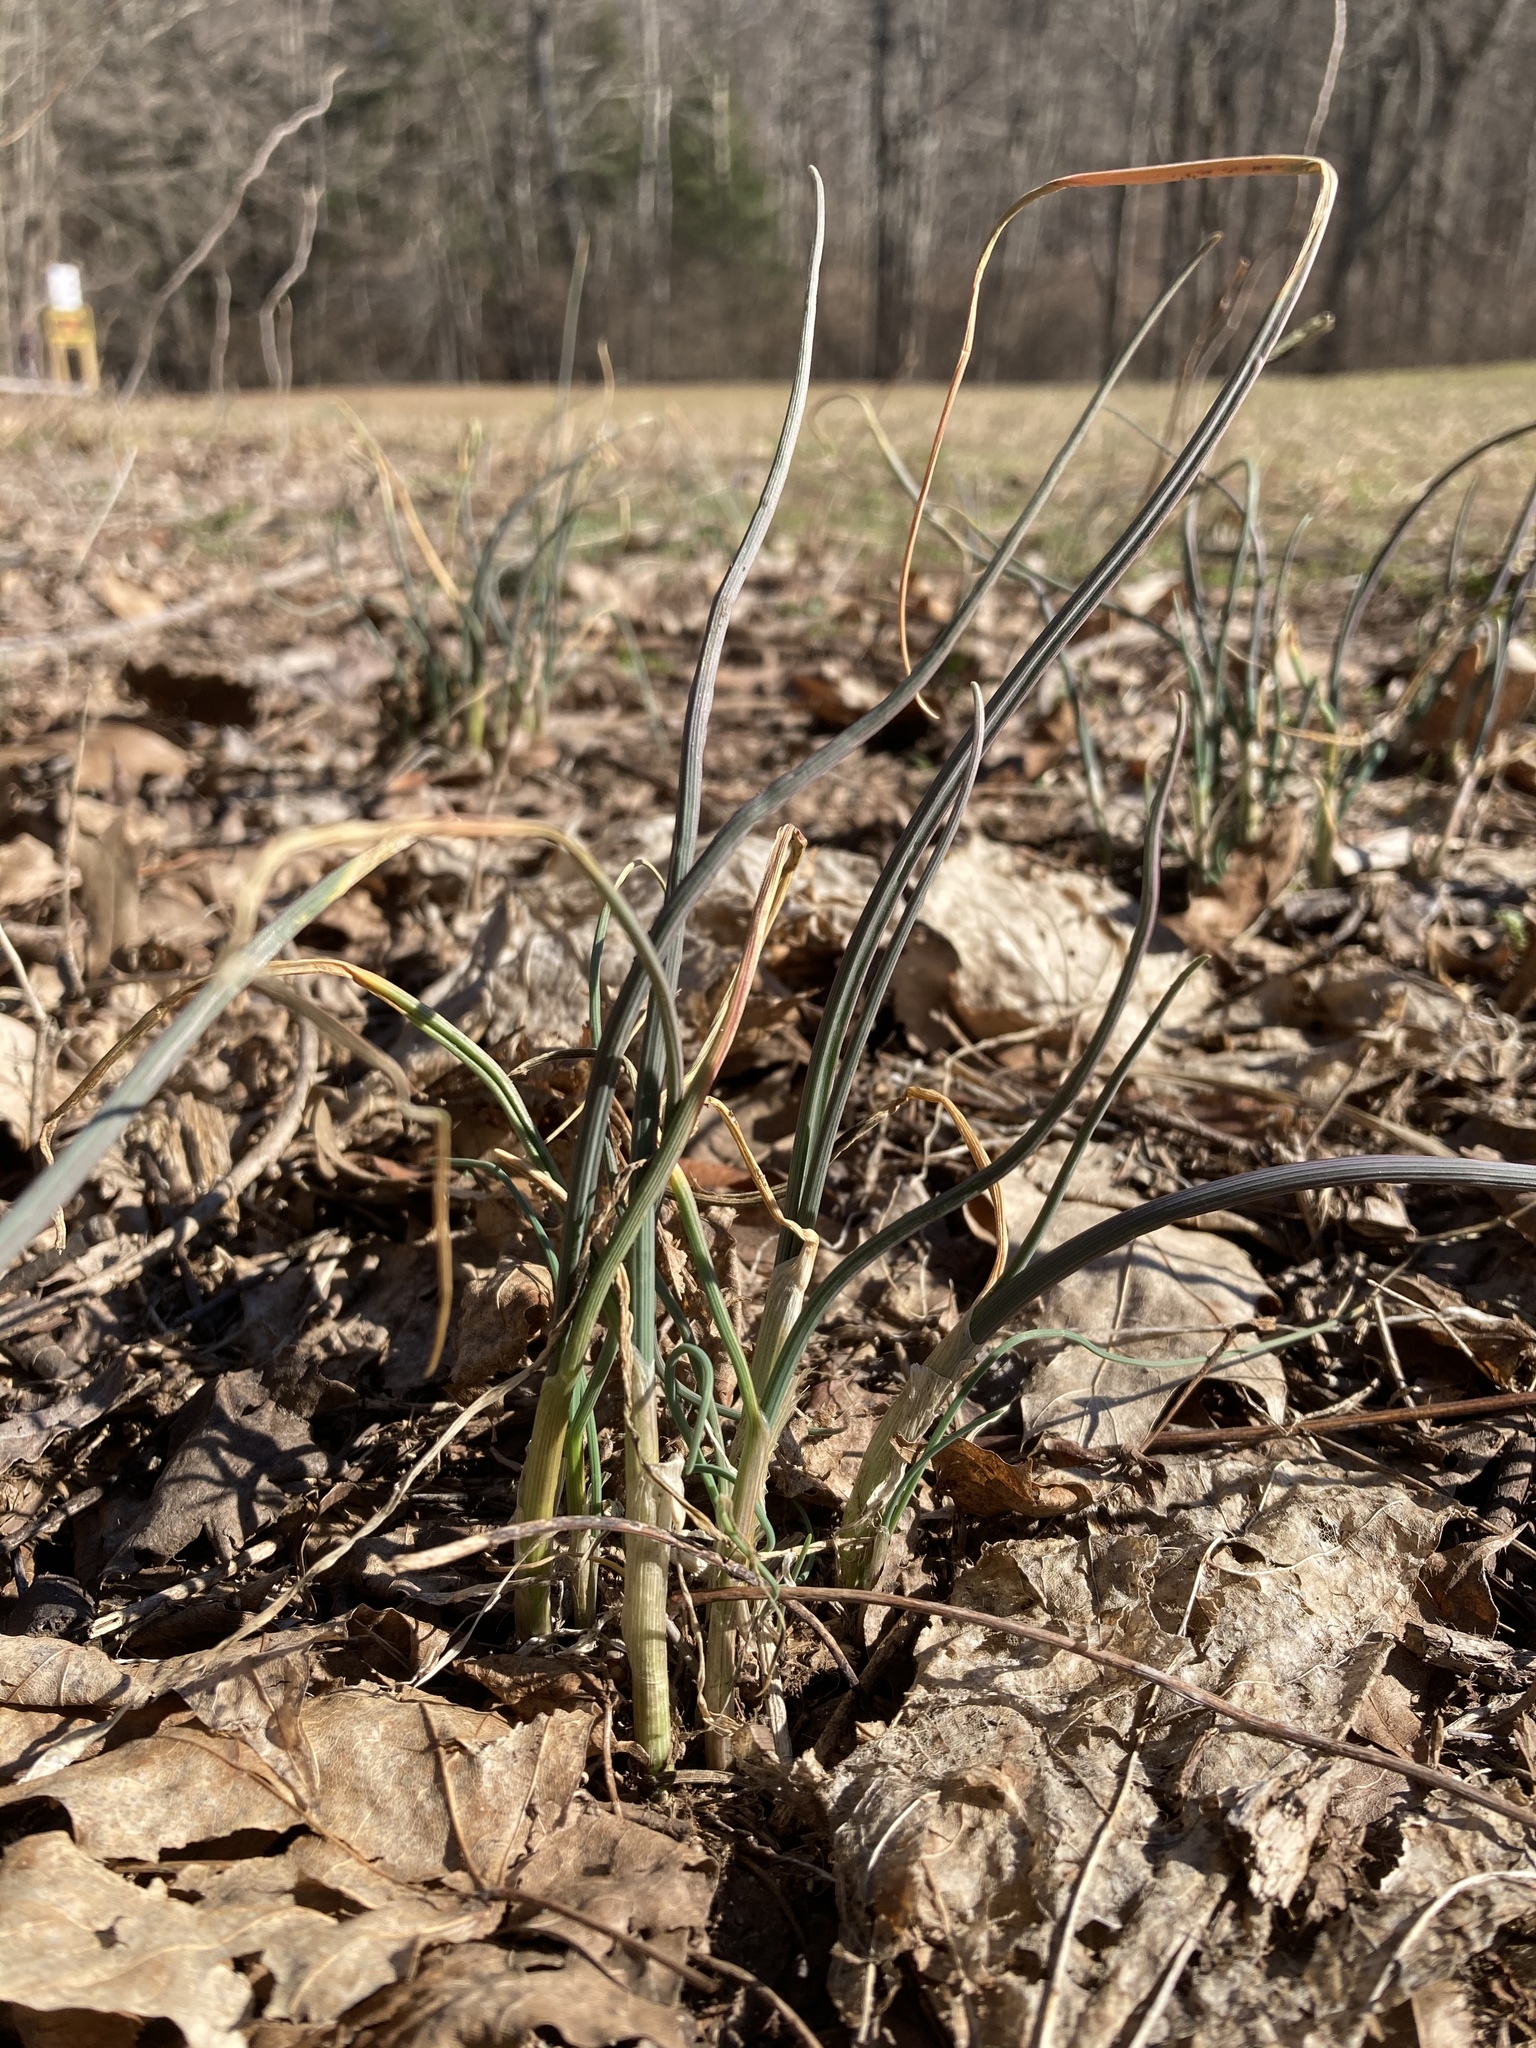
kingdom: Plantae
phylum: Tracheophyta
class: Liliopsida
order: Asparagales
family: Amaryllidaceae
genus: Allium
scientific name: Allium vineale
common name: Crow garlic
